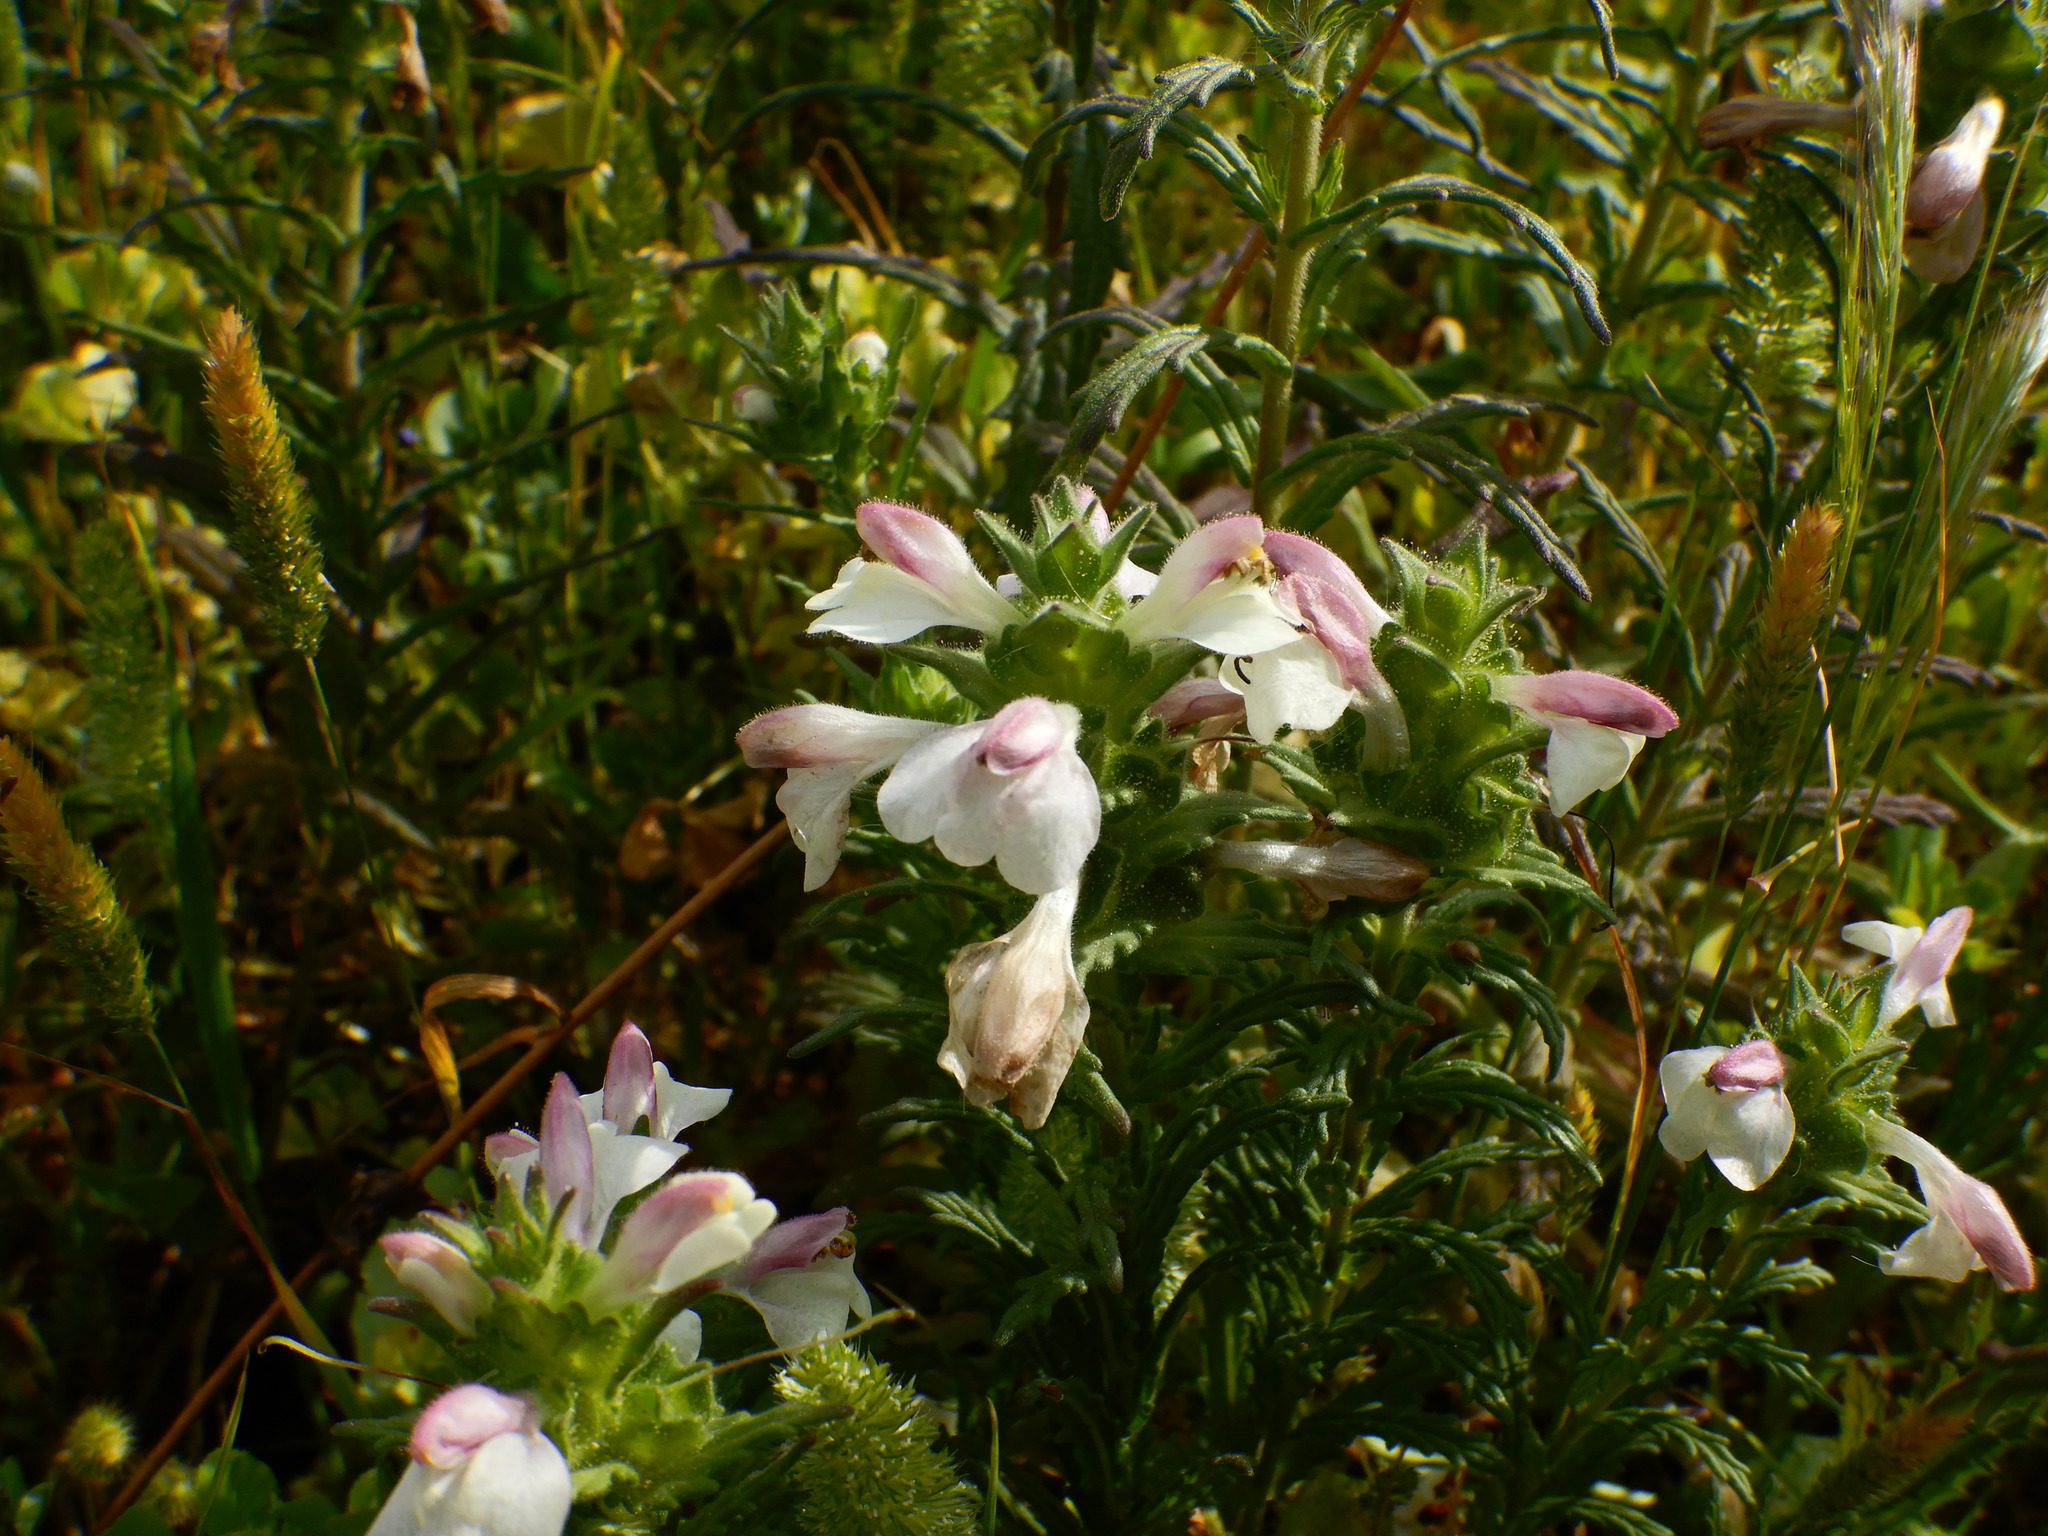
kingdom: Plantae
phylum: Tracheophyta
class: Magnoliopsida
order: Lamiales
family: Orobanchaceae
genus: Bellardia
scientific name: Bellardia trixago
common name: Mediterranean lineseed
